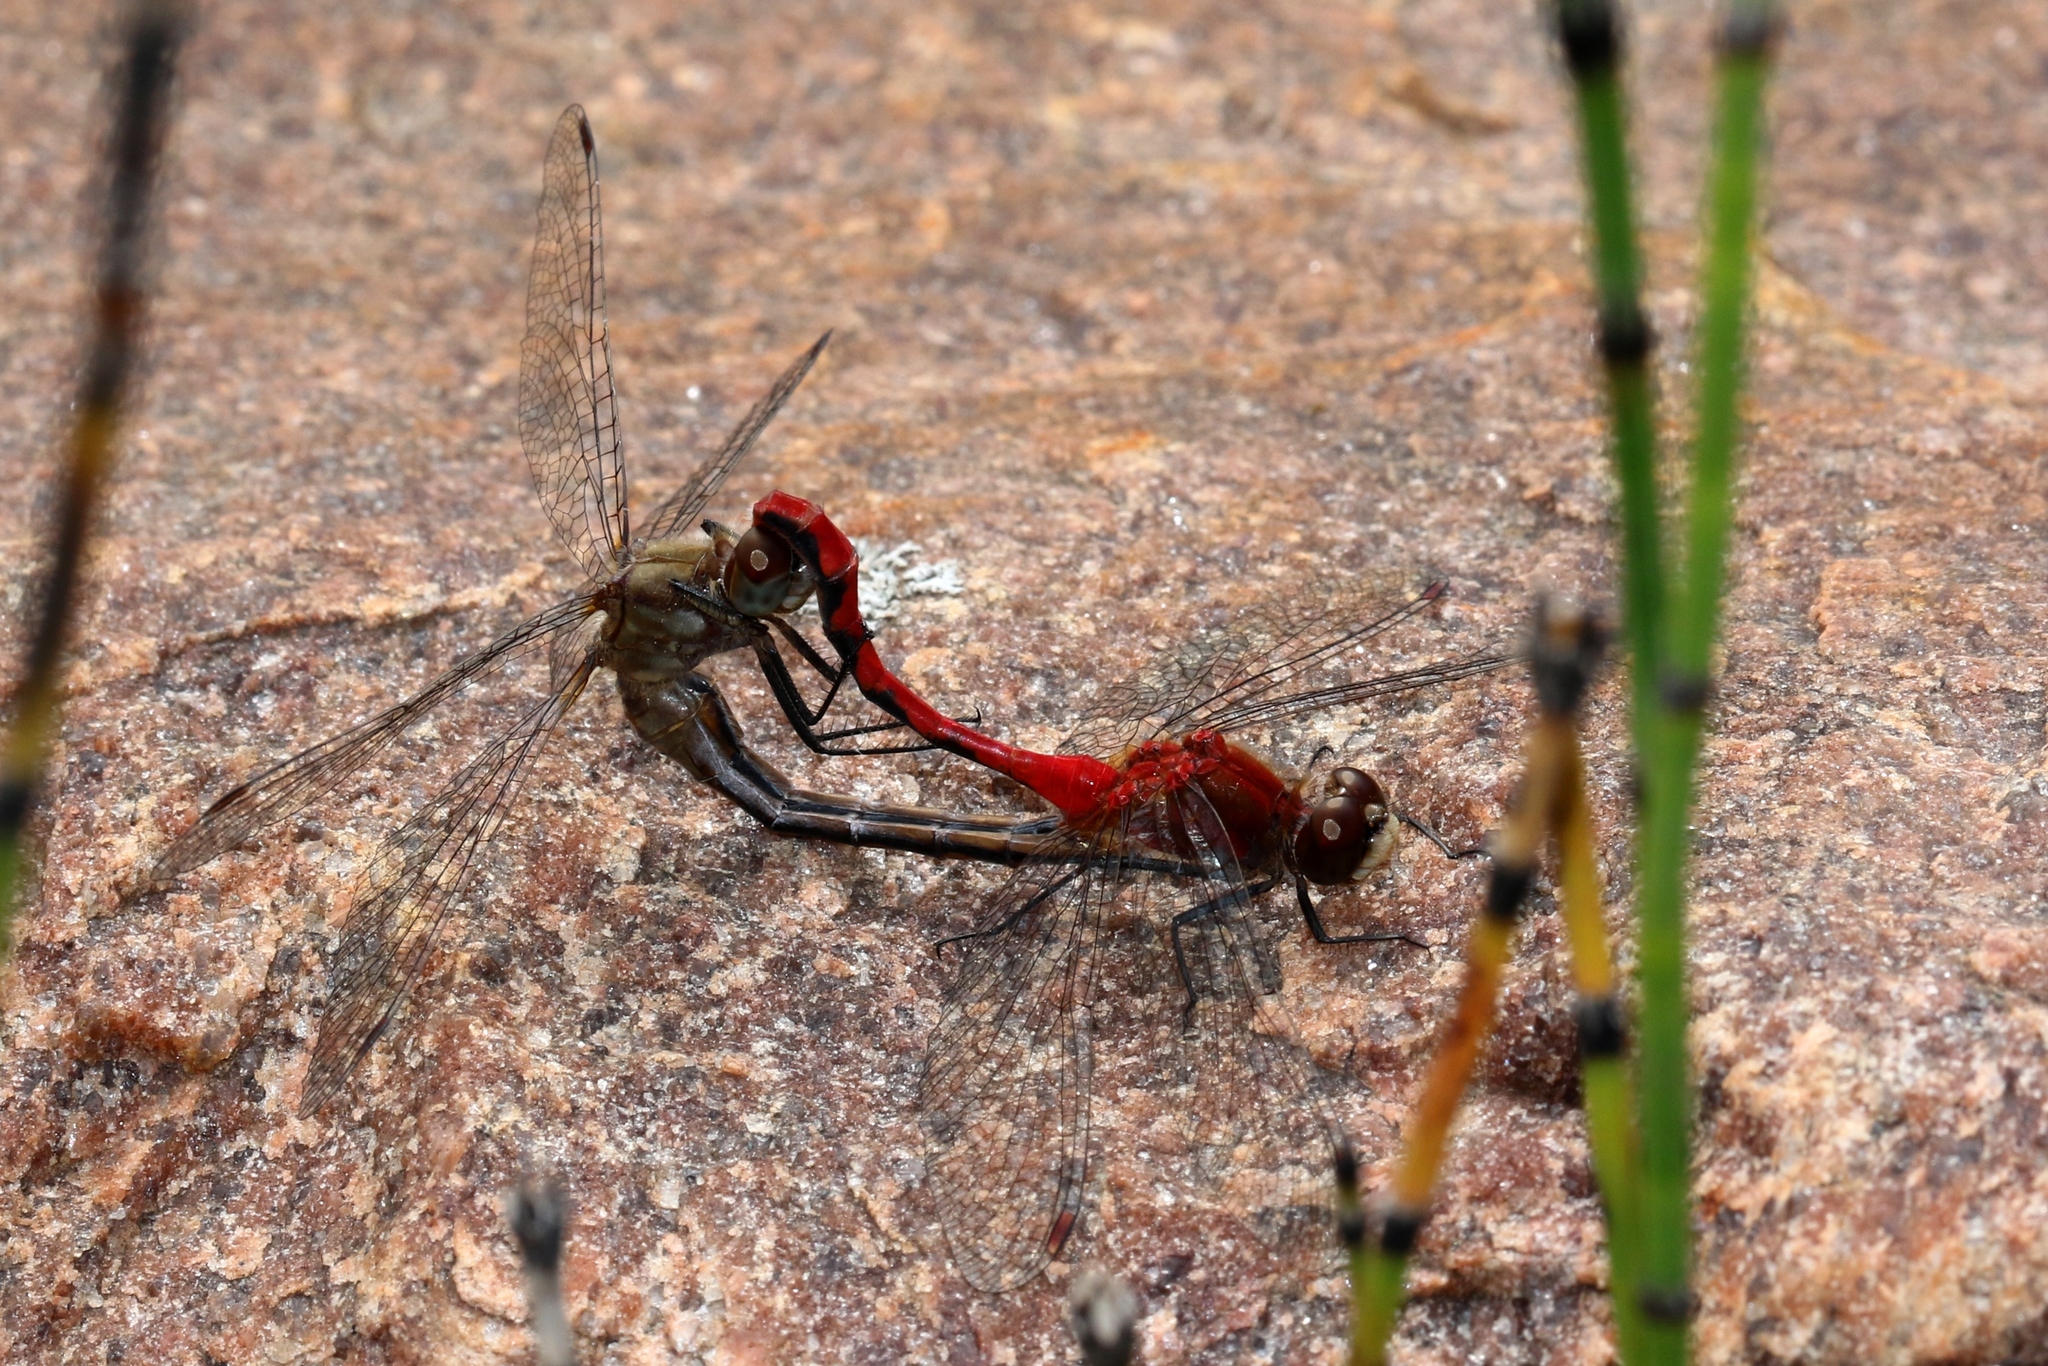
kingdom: Animalia
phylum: Arthropoda
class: Insecta
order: Odonata
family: Libellulidae
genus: Sympetrum
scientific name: Sympetrum obtrusum
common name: White-faced meadowhawk
